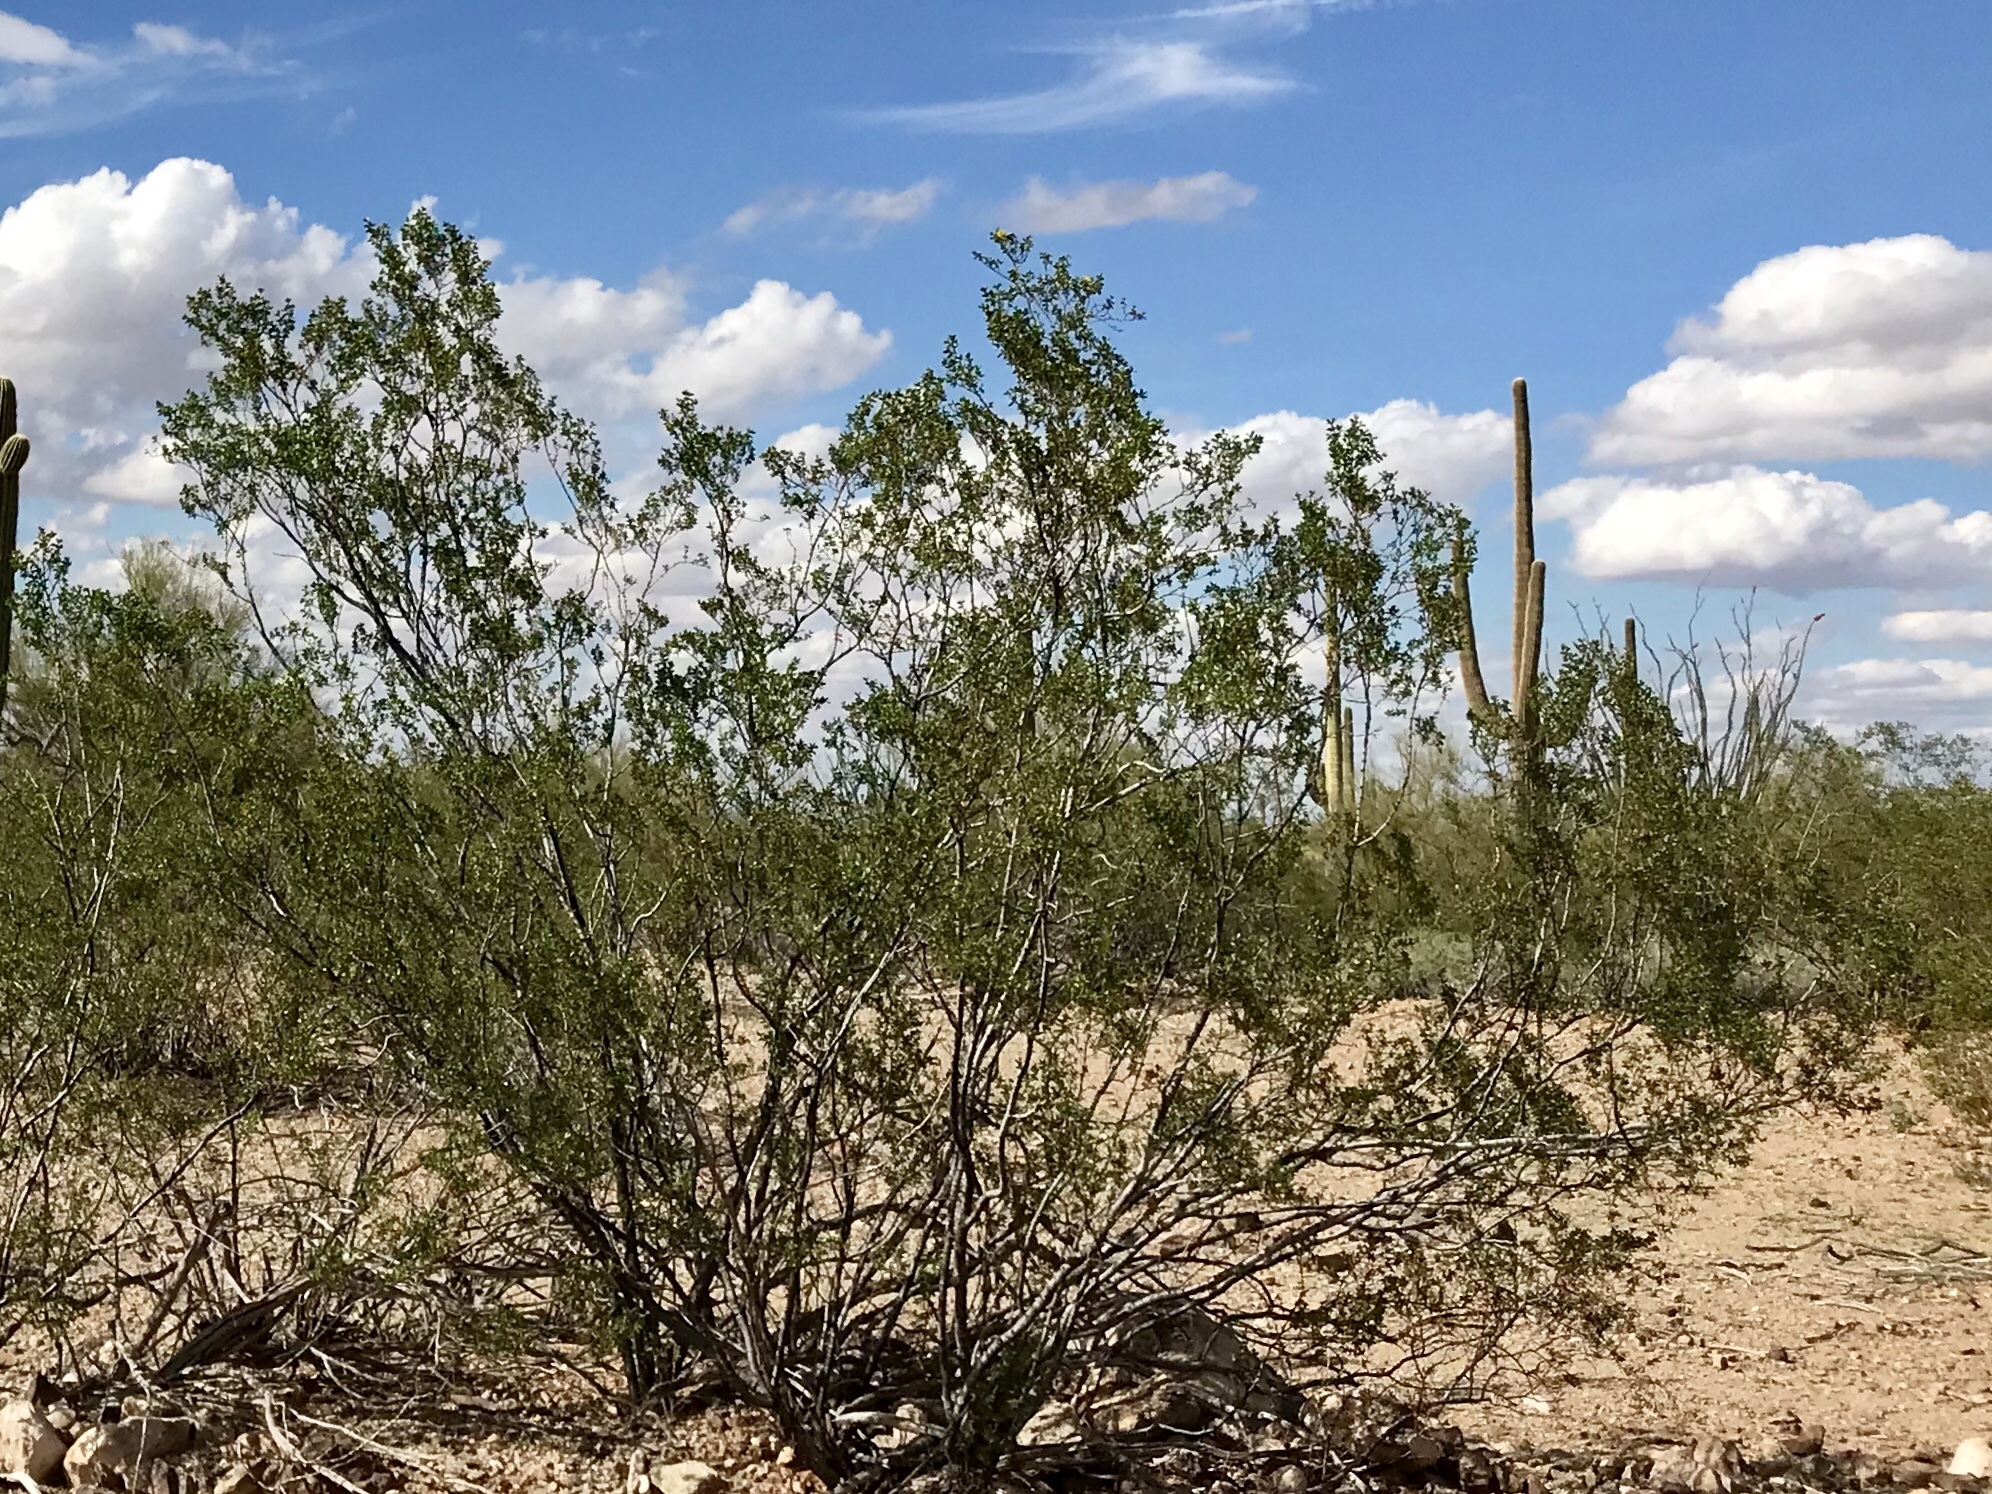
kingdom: Plantae
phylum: Tracheophyta
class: Magnoliopsida
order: Zygophyllales
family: Zygophyllaceae
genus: Larrea
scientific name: Larrea tridentata
